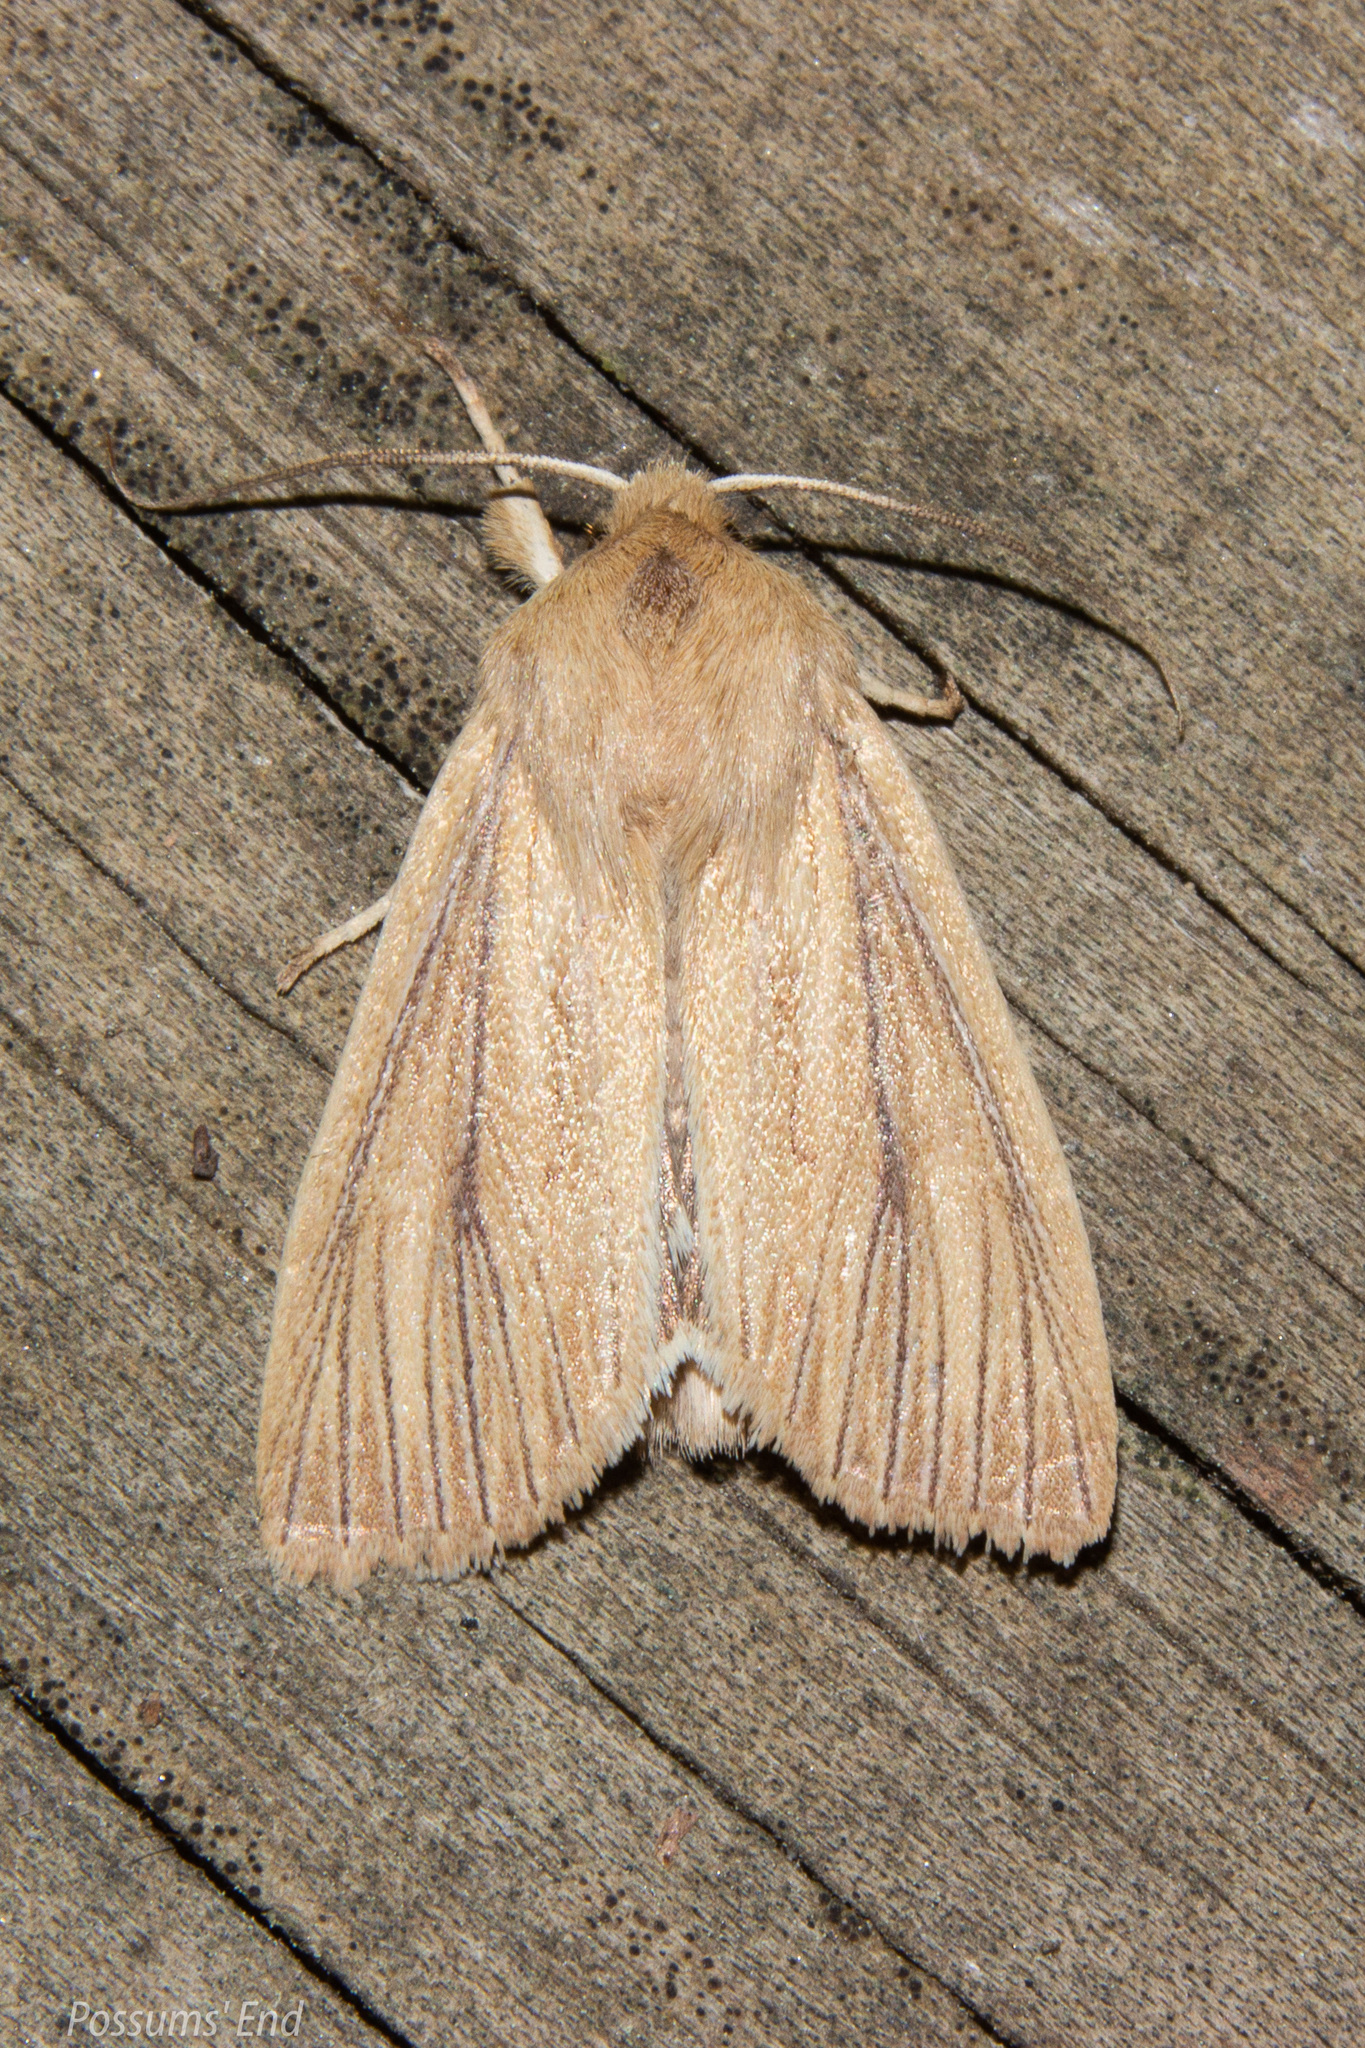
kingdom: Animalia
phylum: Arthropoda
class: Insecta
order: Lepidoptera
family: Noctuidae
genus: Ichneutica
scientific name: Ichneutica arotis
